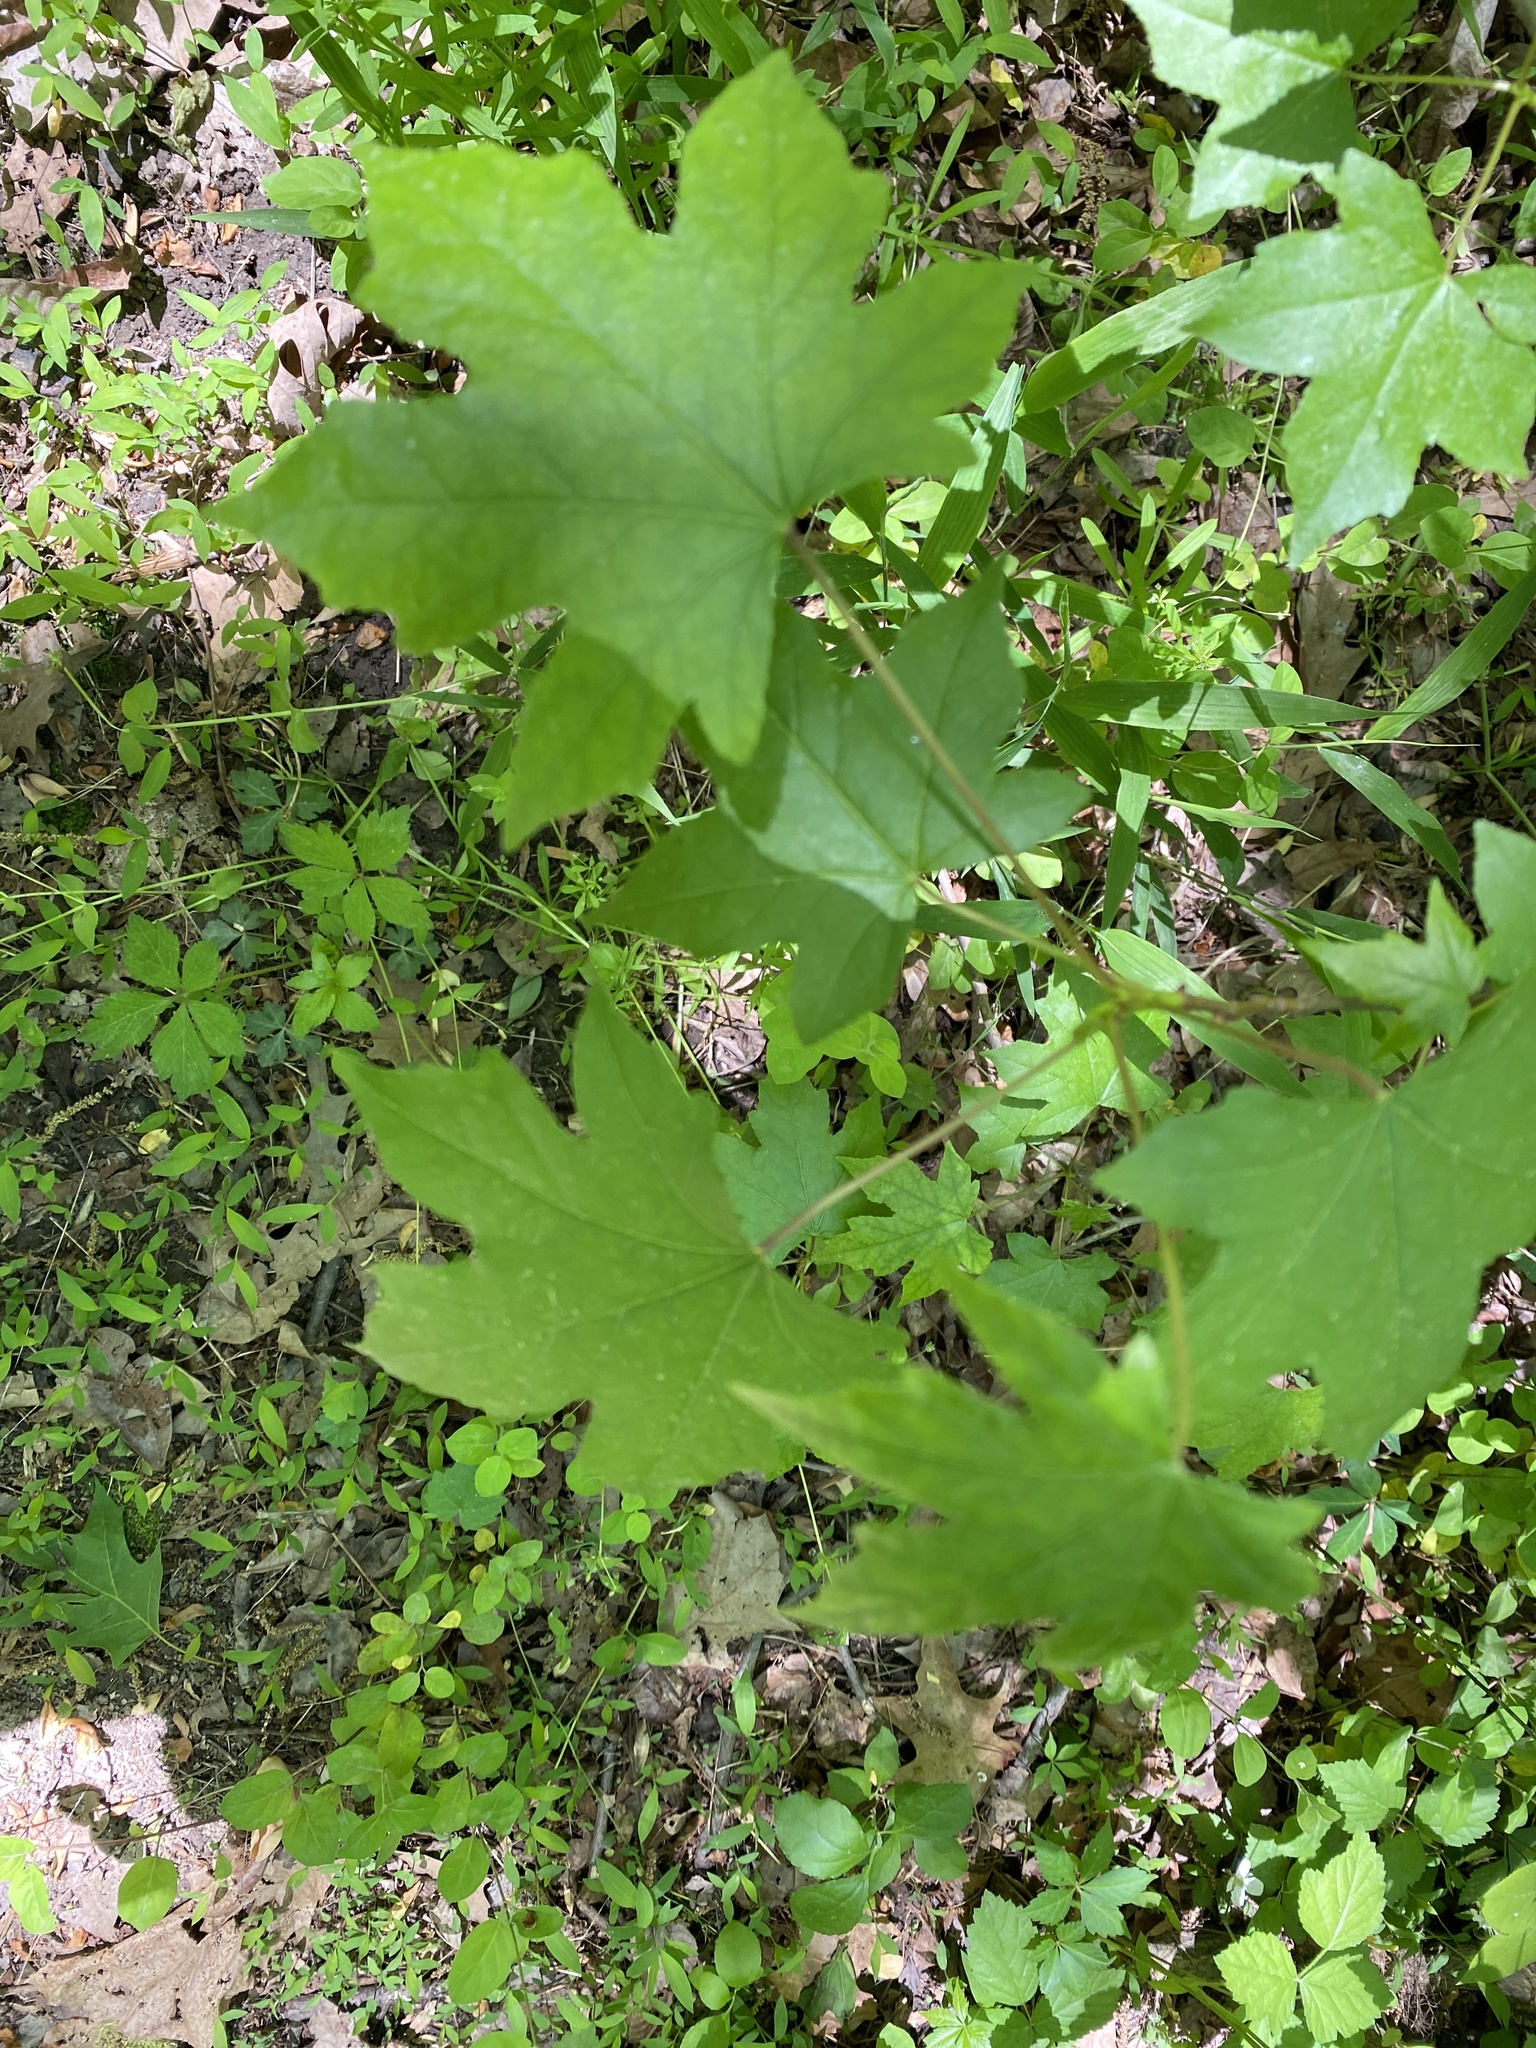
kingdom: Plantae
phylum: Tracheophyta
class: Magnoliopsida
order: Saxifragales
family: Altingiaceae
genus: Liquidambar
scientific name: Liquidambar styraciflua
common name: Sweet gum
